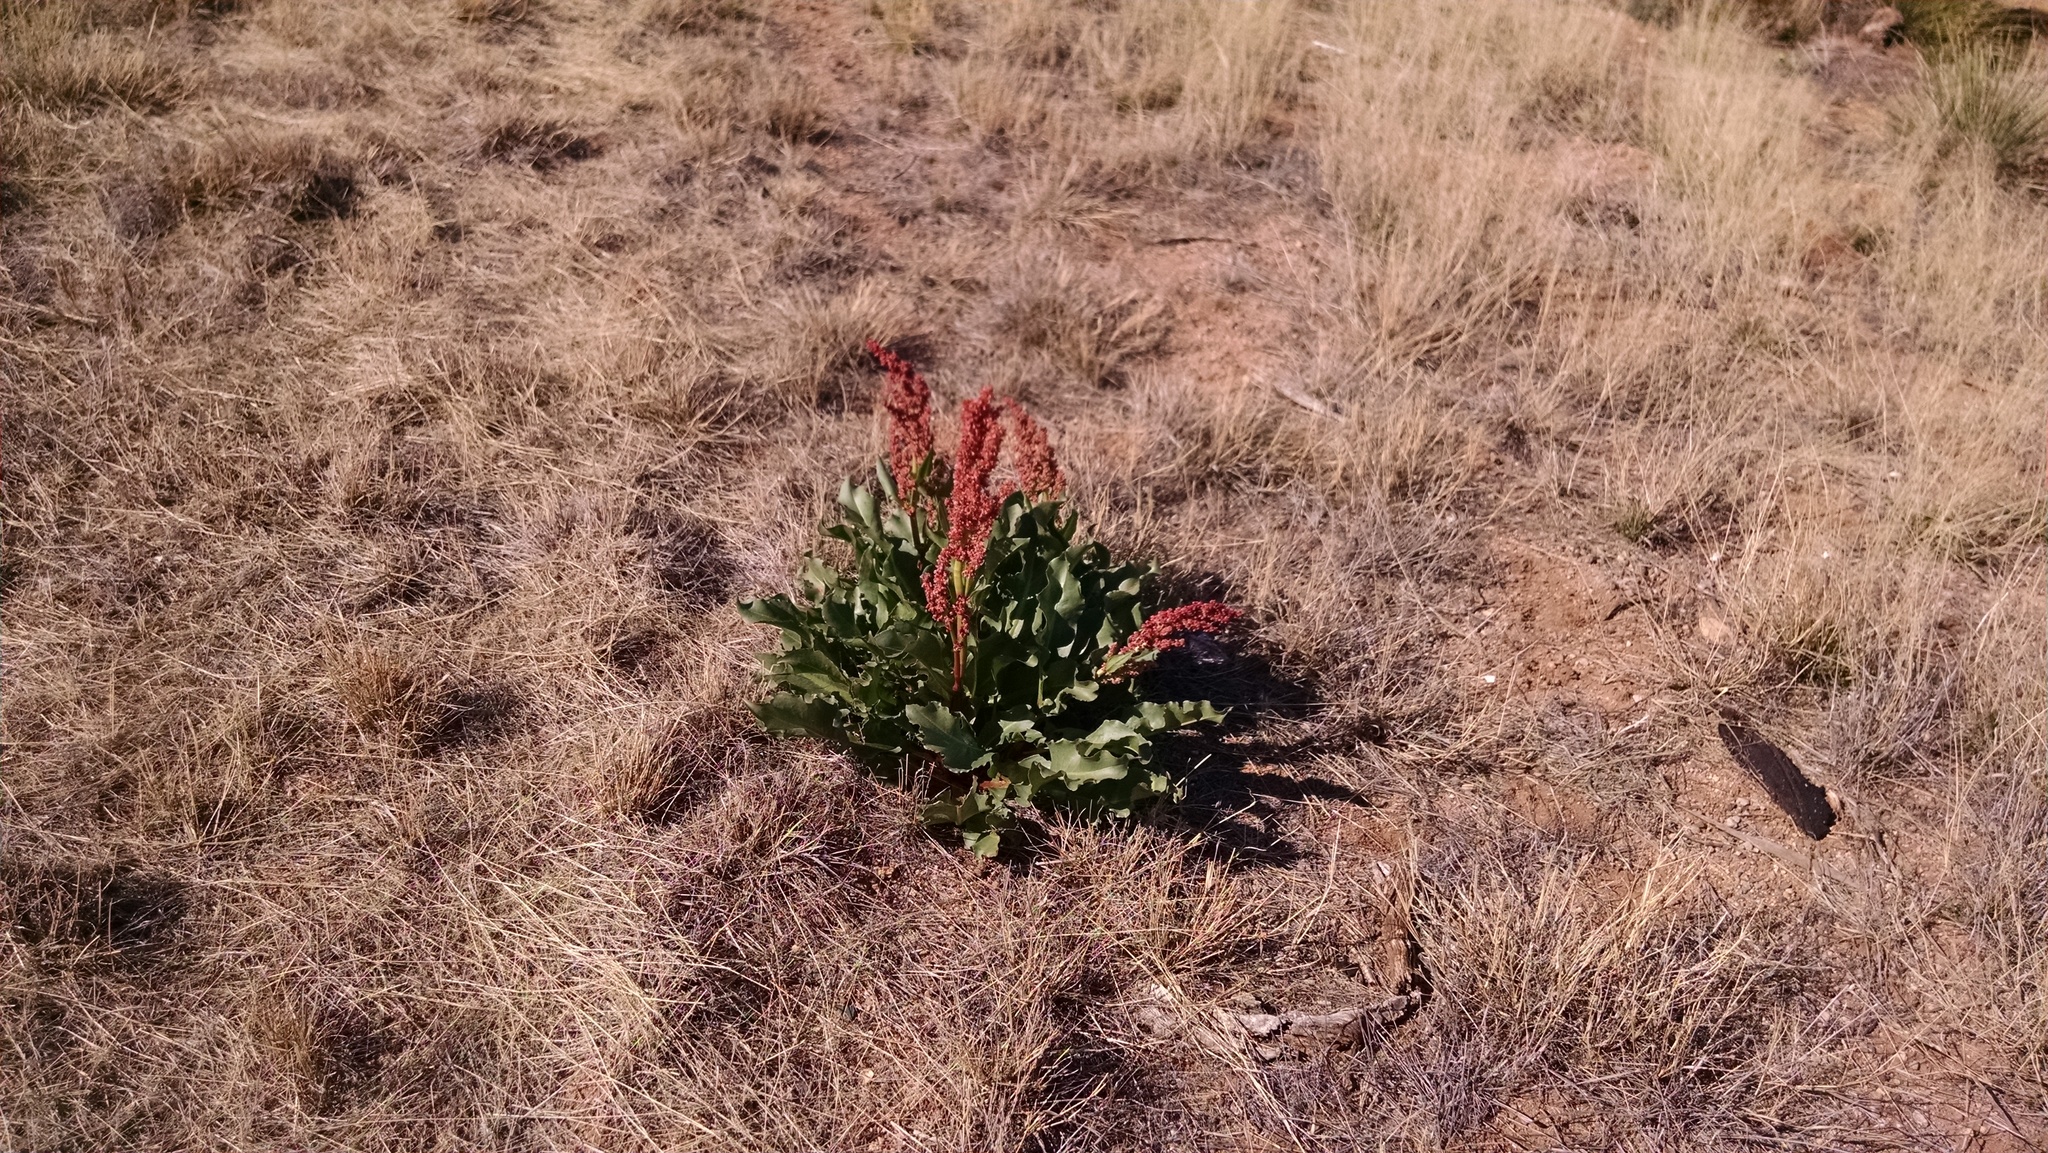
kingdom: Plantae
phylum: Tracheophyta
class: Magnoliopsida
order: Caryophyllales
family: Polygonaceae
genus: Rumex
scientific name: Rumex hymenosepalus
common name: Ganagra
